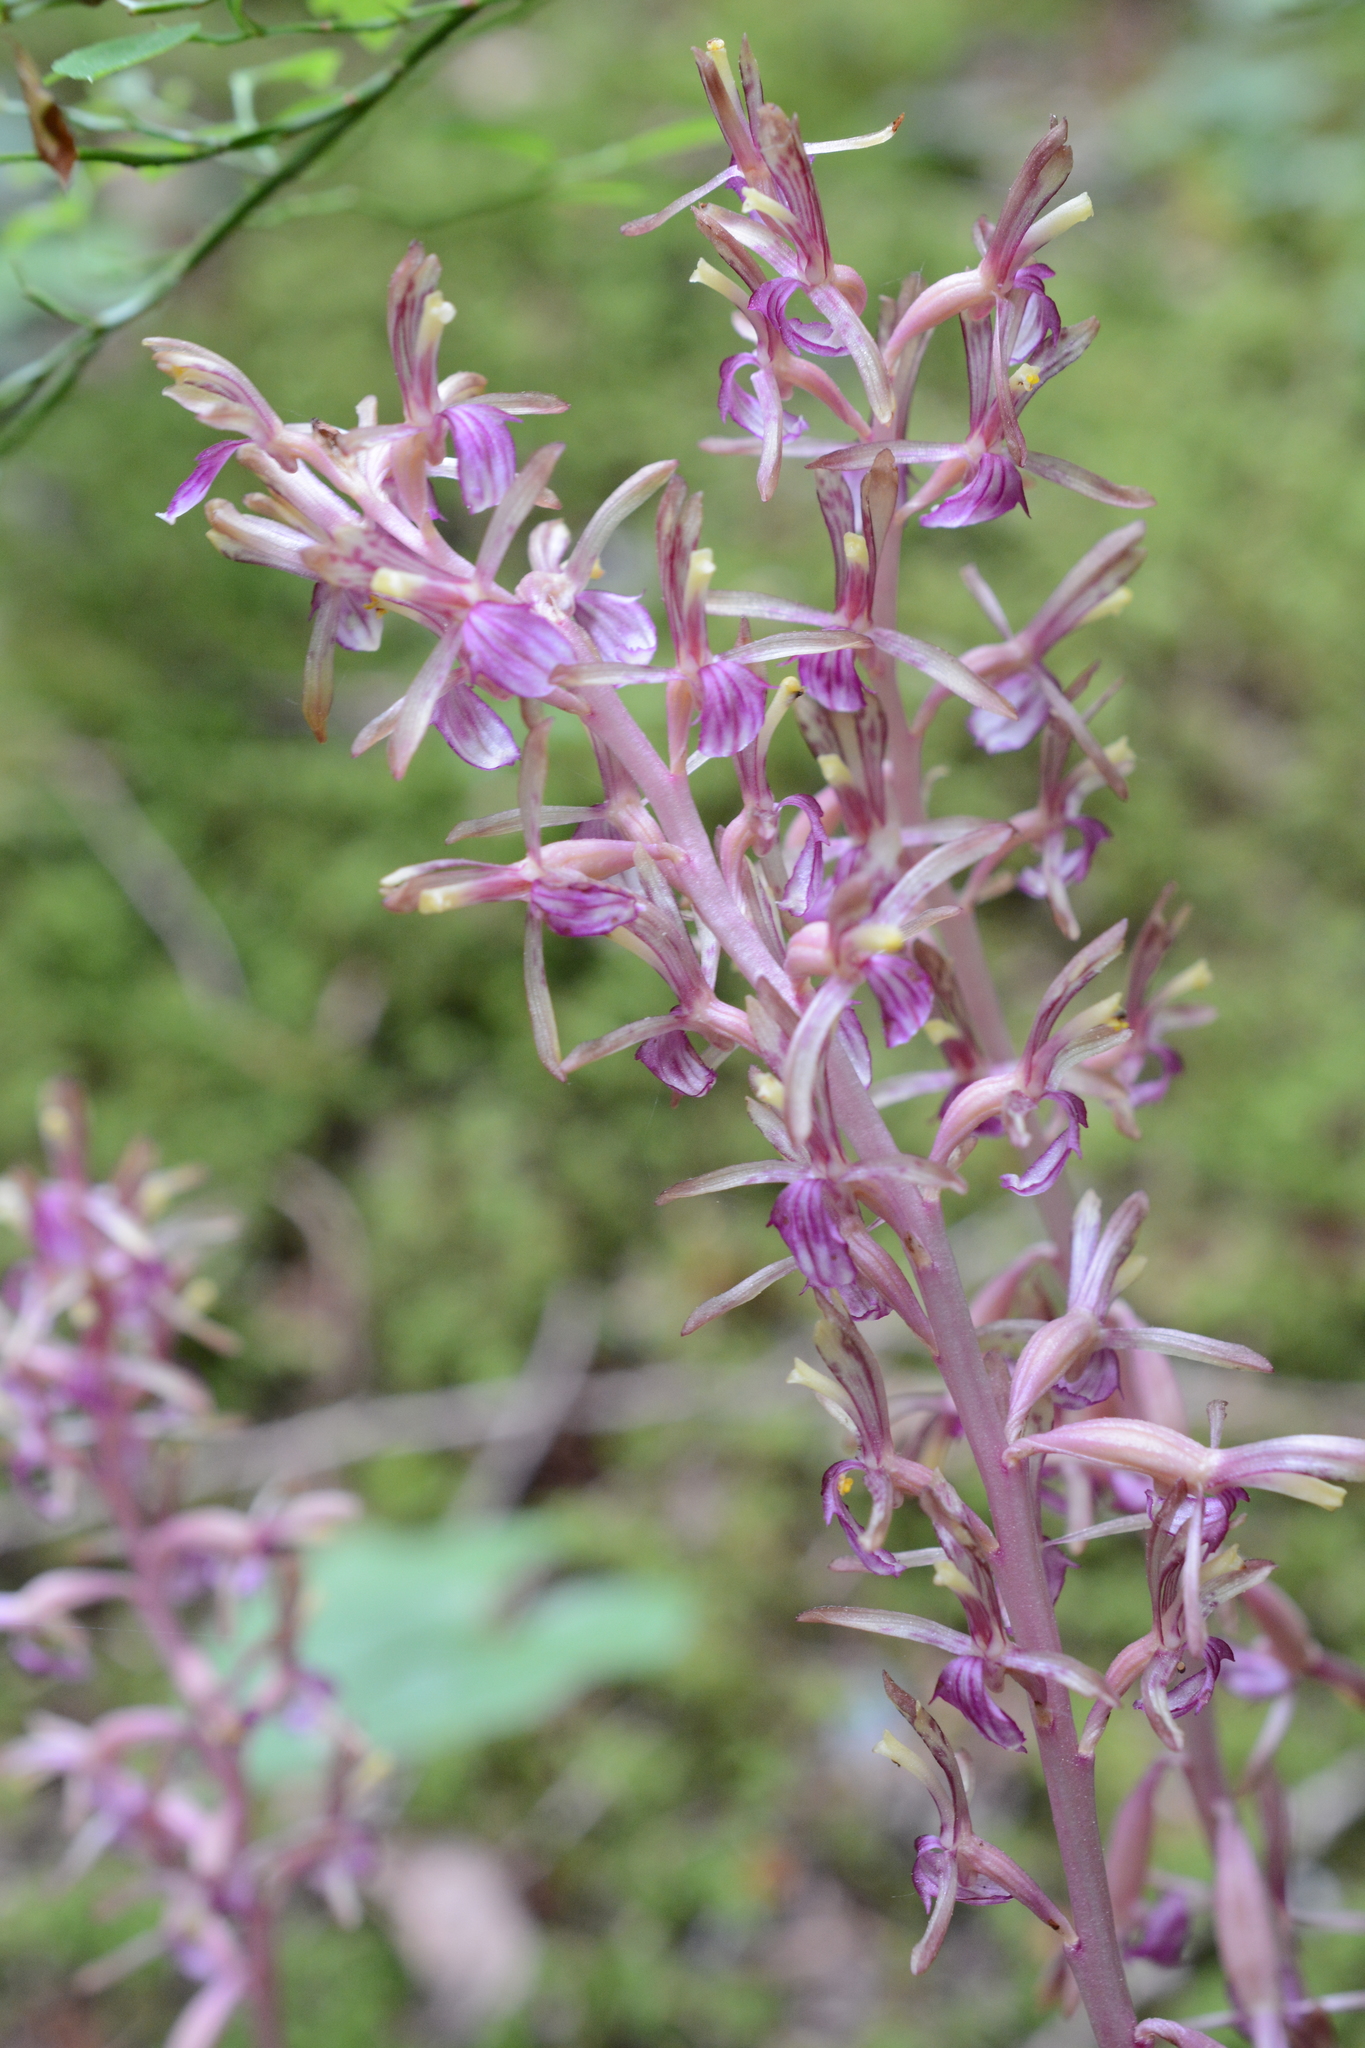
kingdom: Plantae
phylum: Tracheophyta
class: Liliopsida
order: Asparagales
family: Orchidaceae
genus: Corallorhiza
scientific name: Corallorhiza mertensiana
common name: Pacific coralroot
